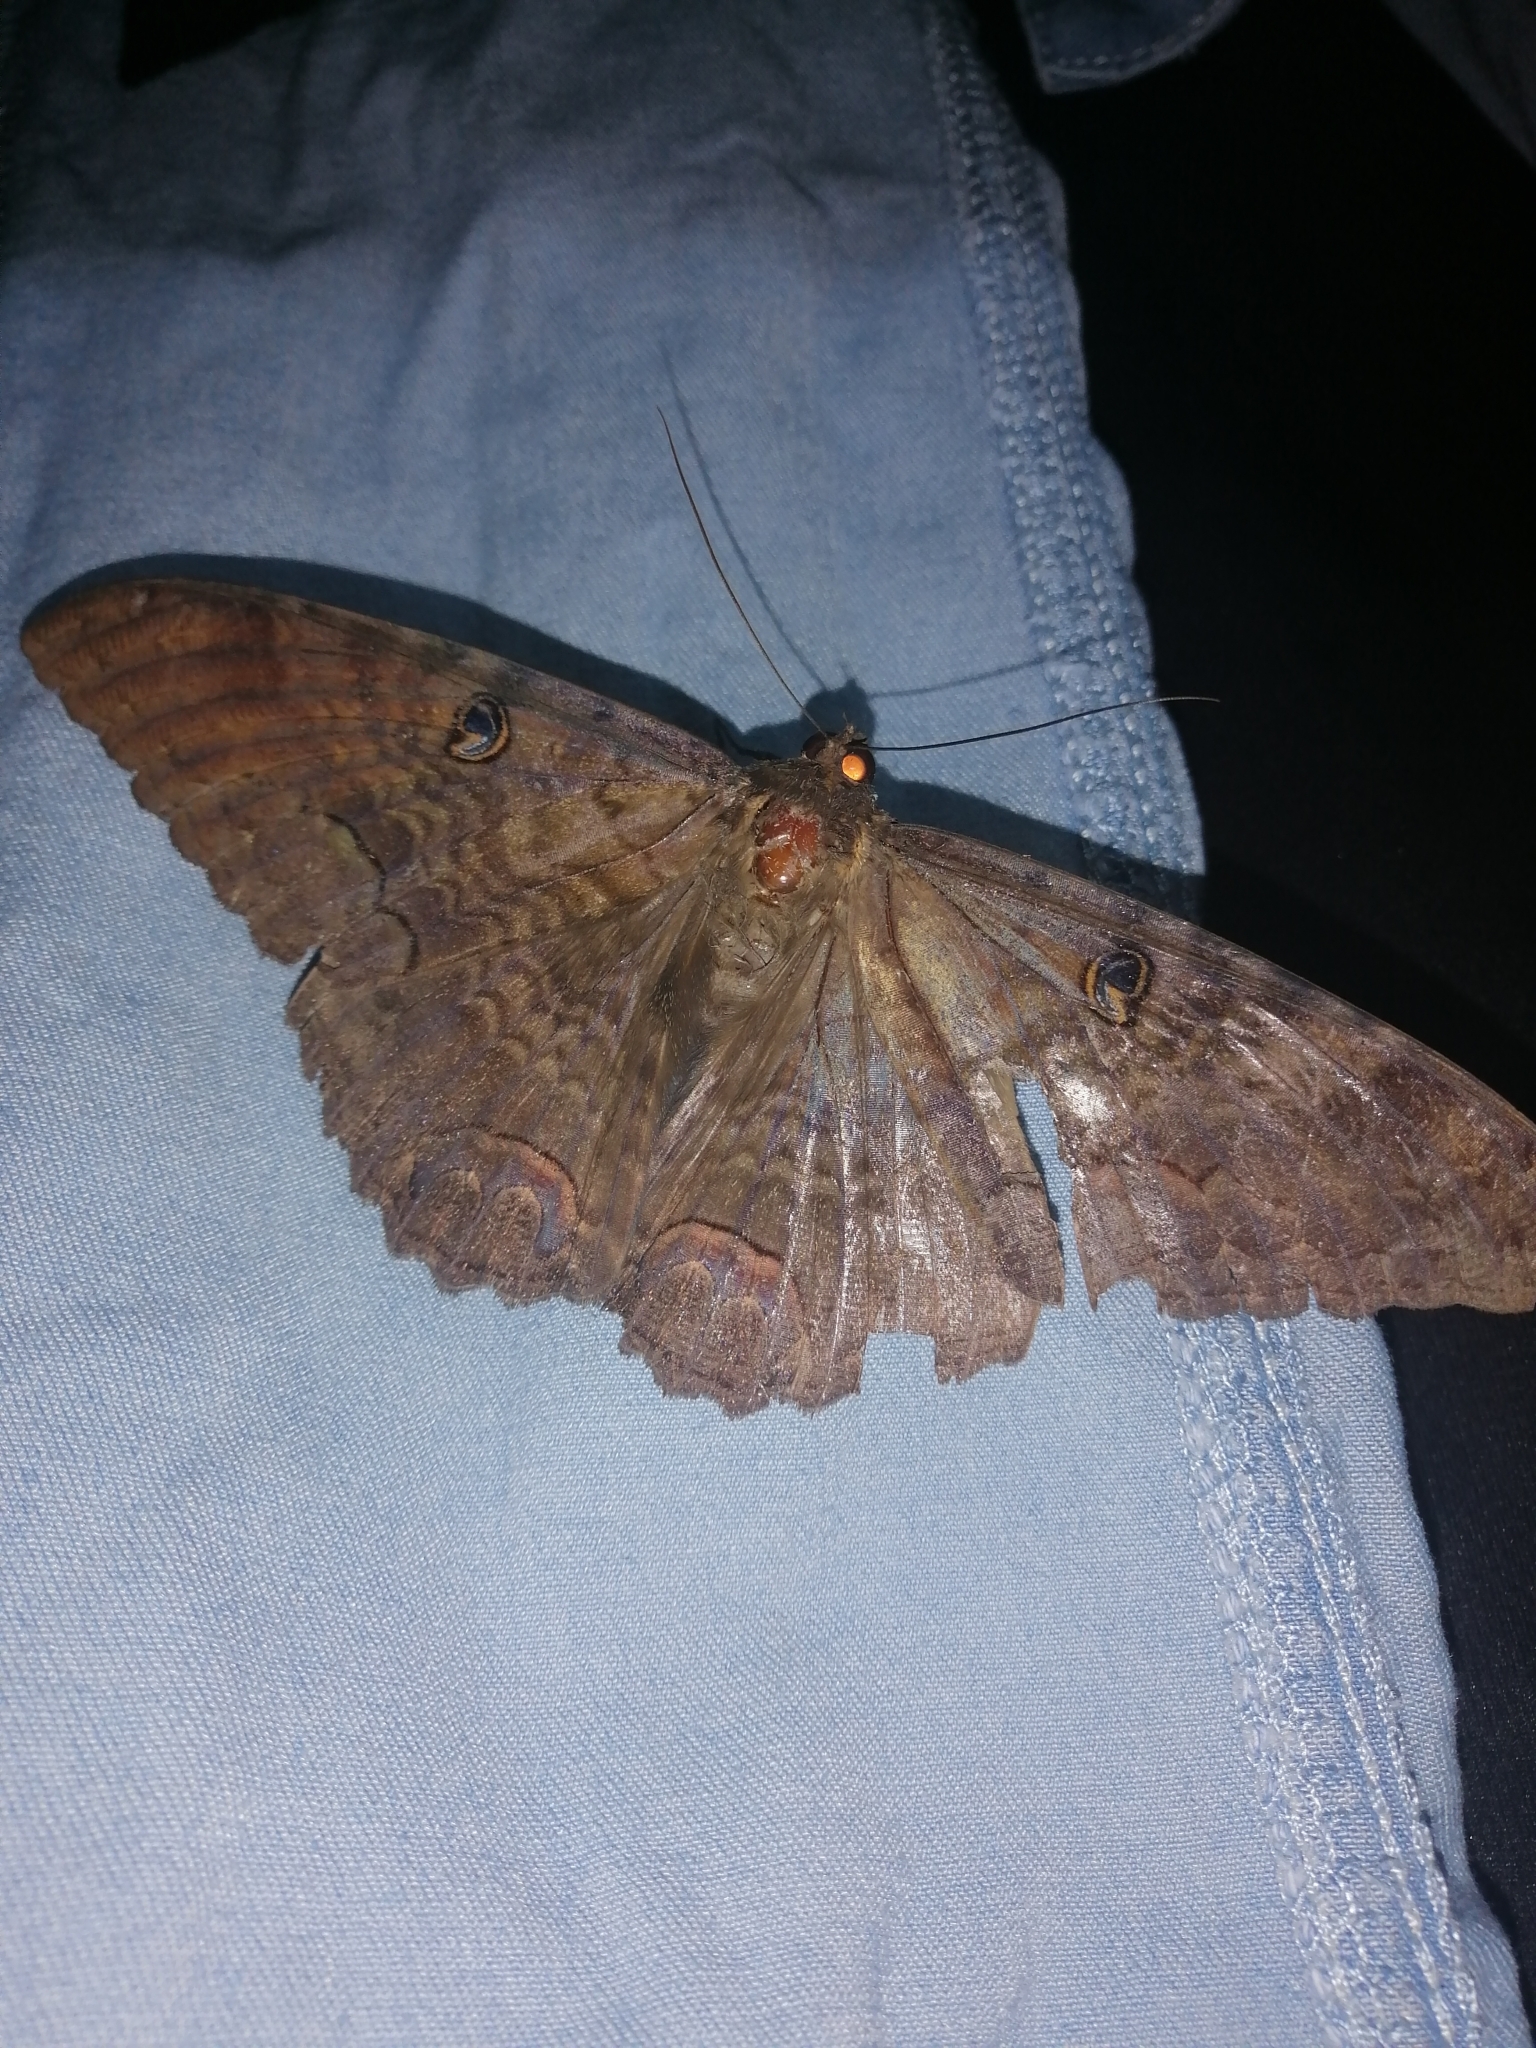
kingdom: Animalia
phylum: Arthropoda
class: Insecta
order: Lepidoptera
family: Erebidae
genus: Ascalapha
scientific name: Ascalapha odorata
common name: Black witch
